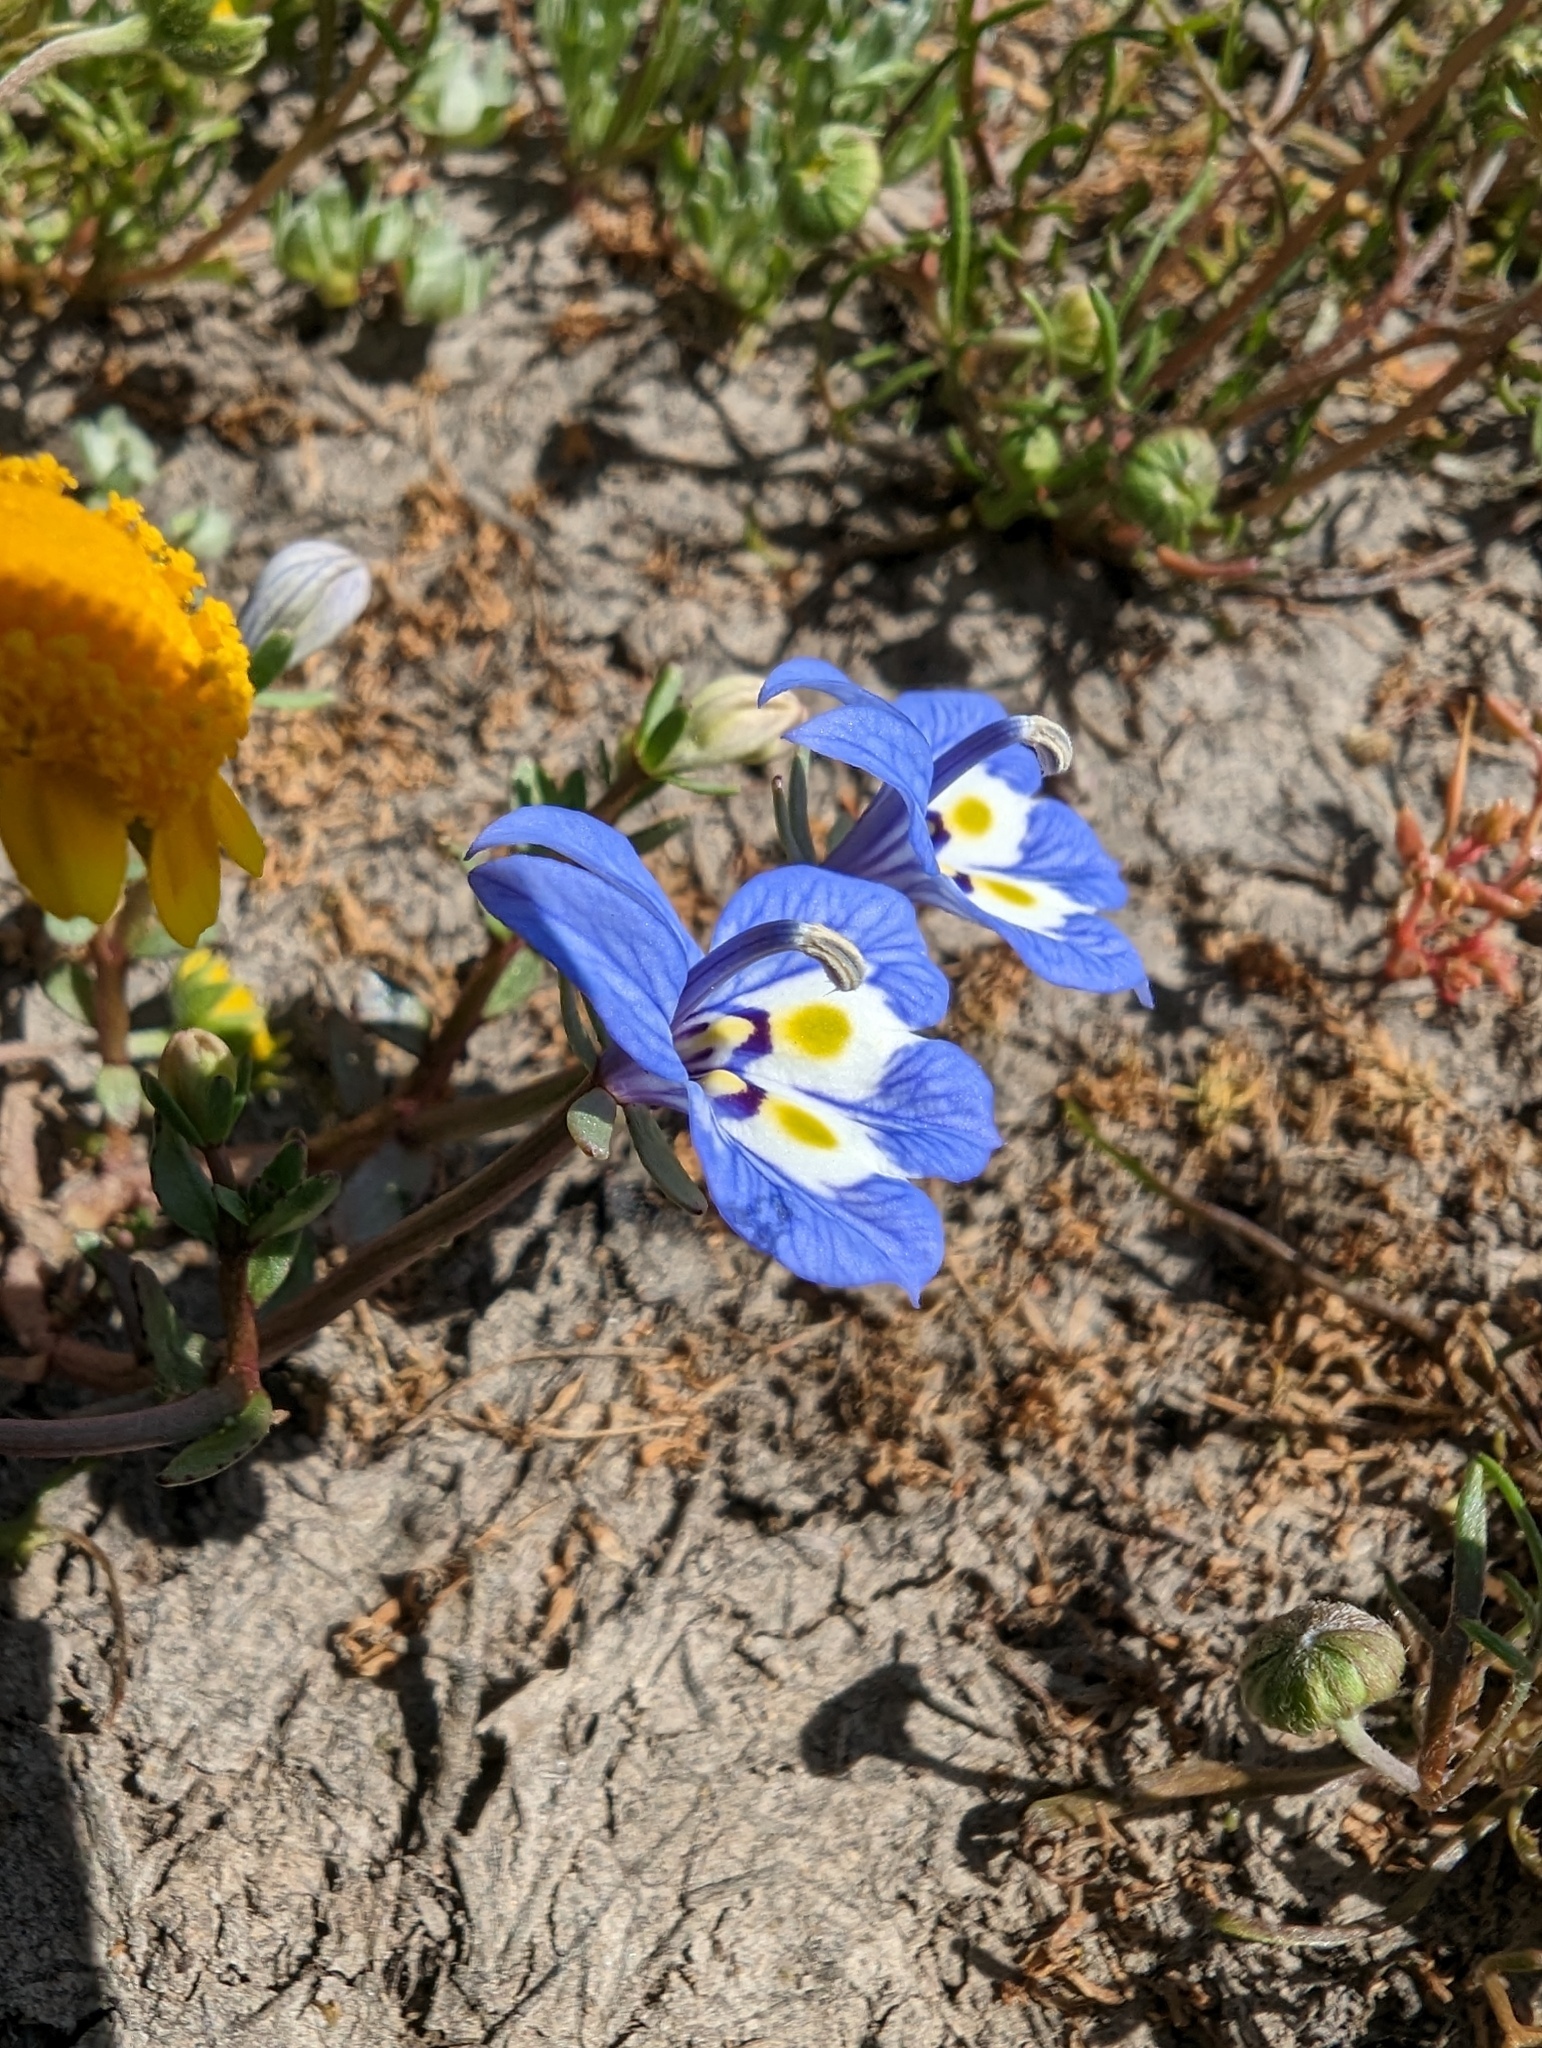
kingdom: Plantae
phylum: Tracheophyta
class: Magnoliopsida
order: Asterales
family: Campanulaceae
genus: Downingia
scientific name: Downingia insignis
